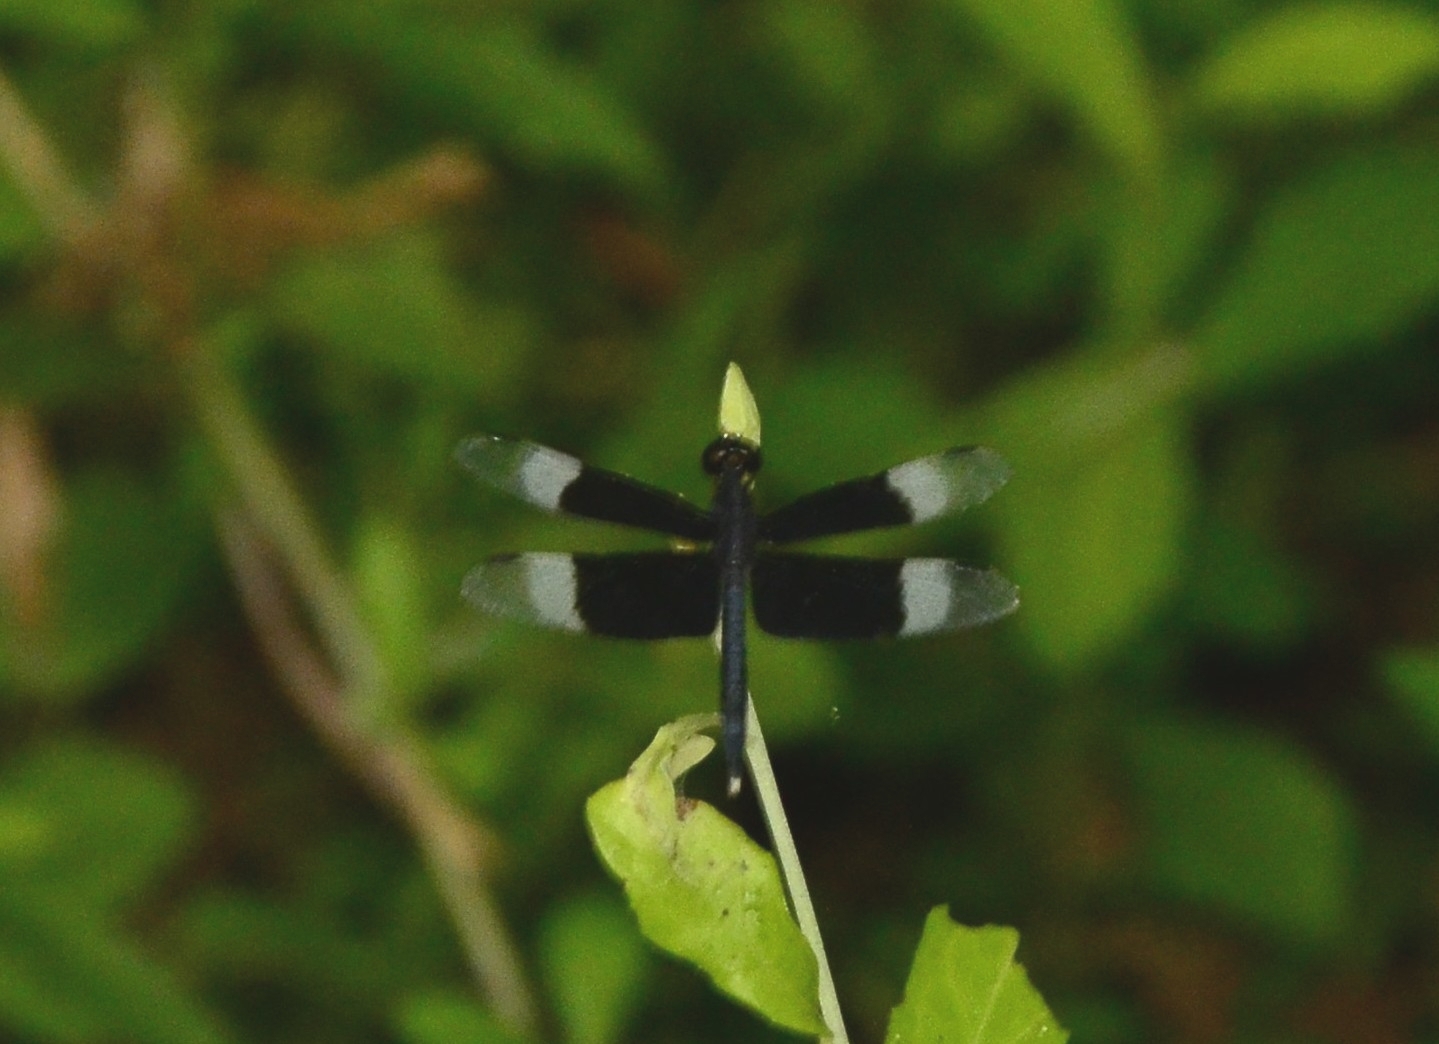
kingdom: Animalia
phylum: Arthropoda
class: Insecta
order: Odonata
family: Libellulidae
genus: Neurothemis
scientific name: Neurothemis tullia
